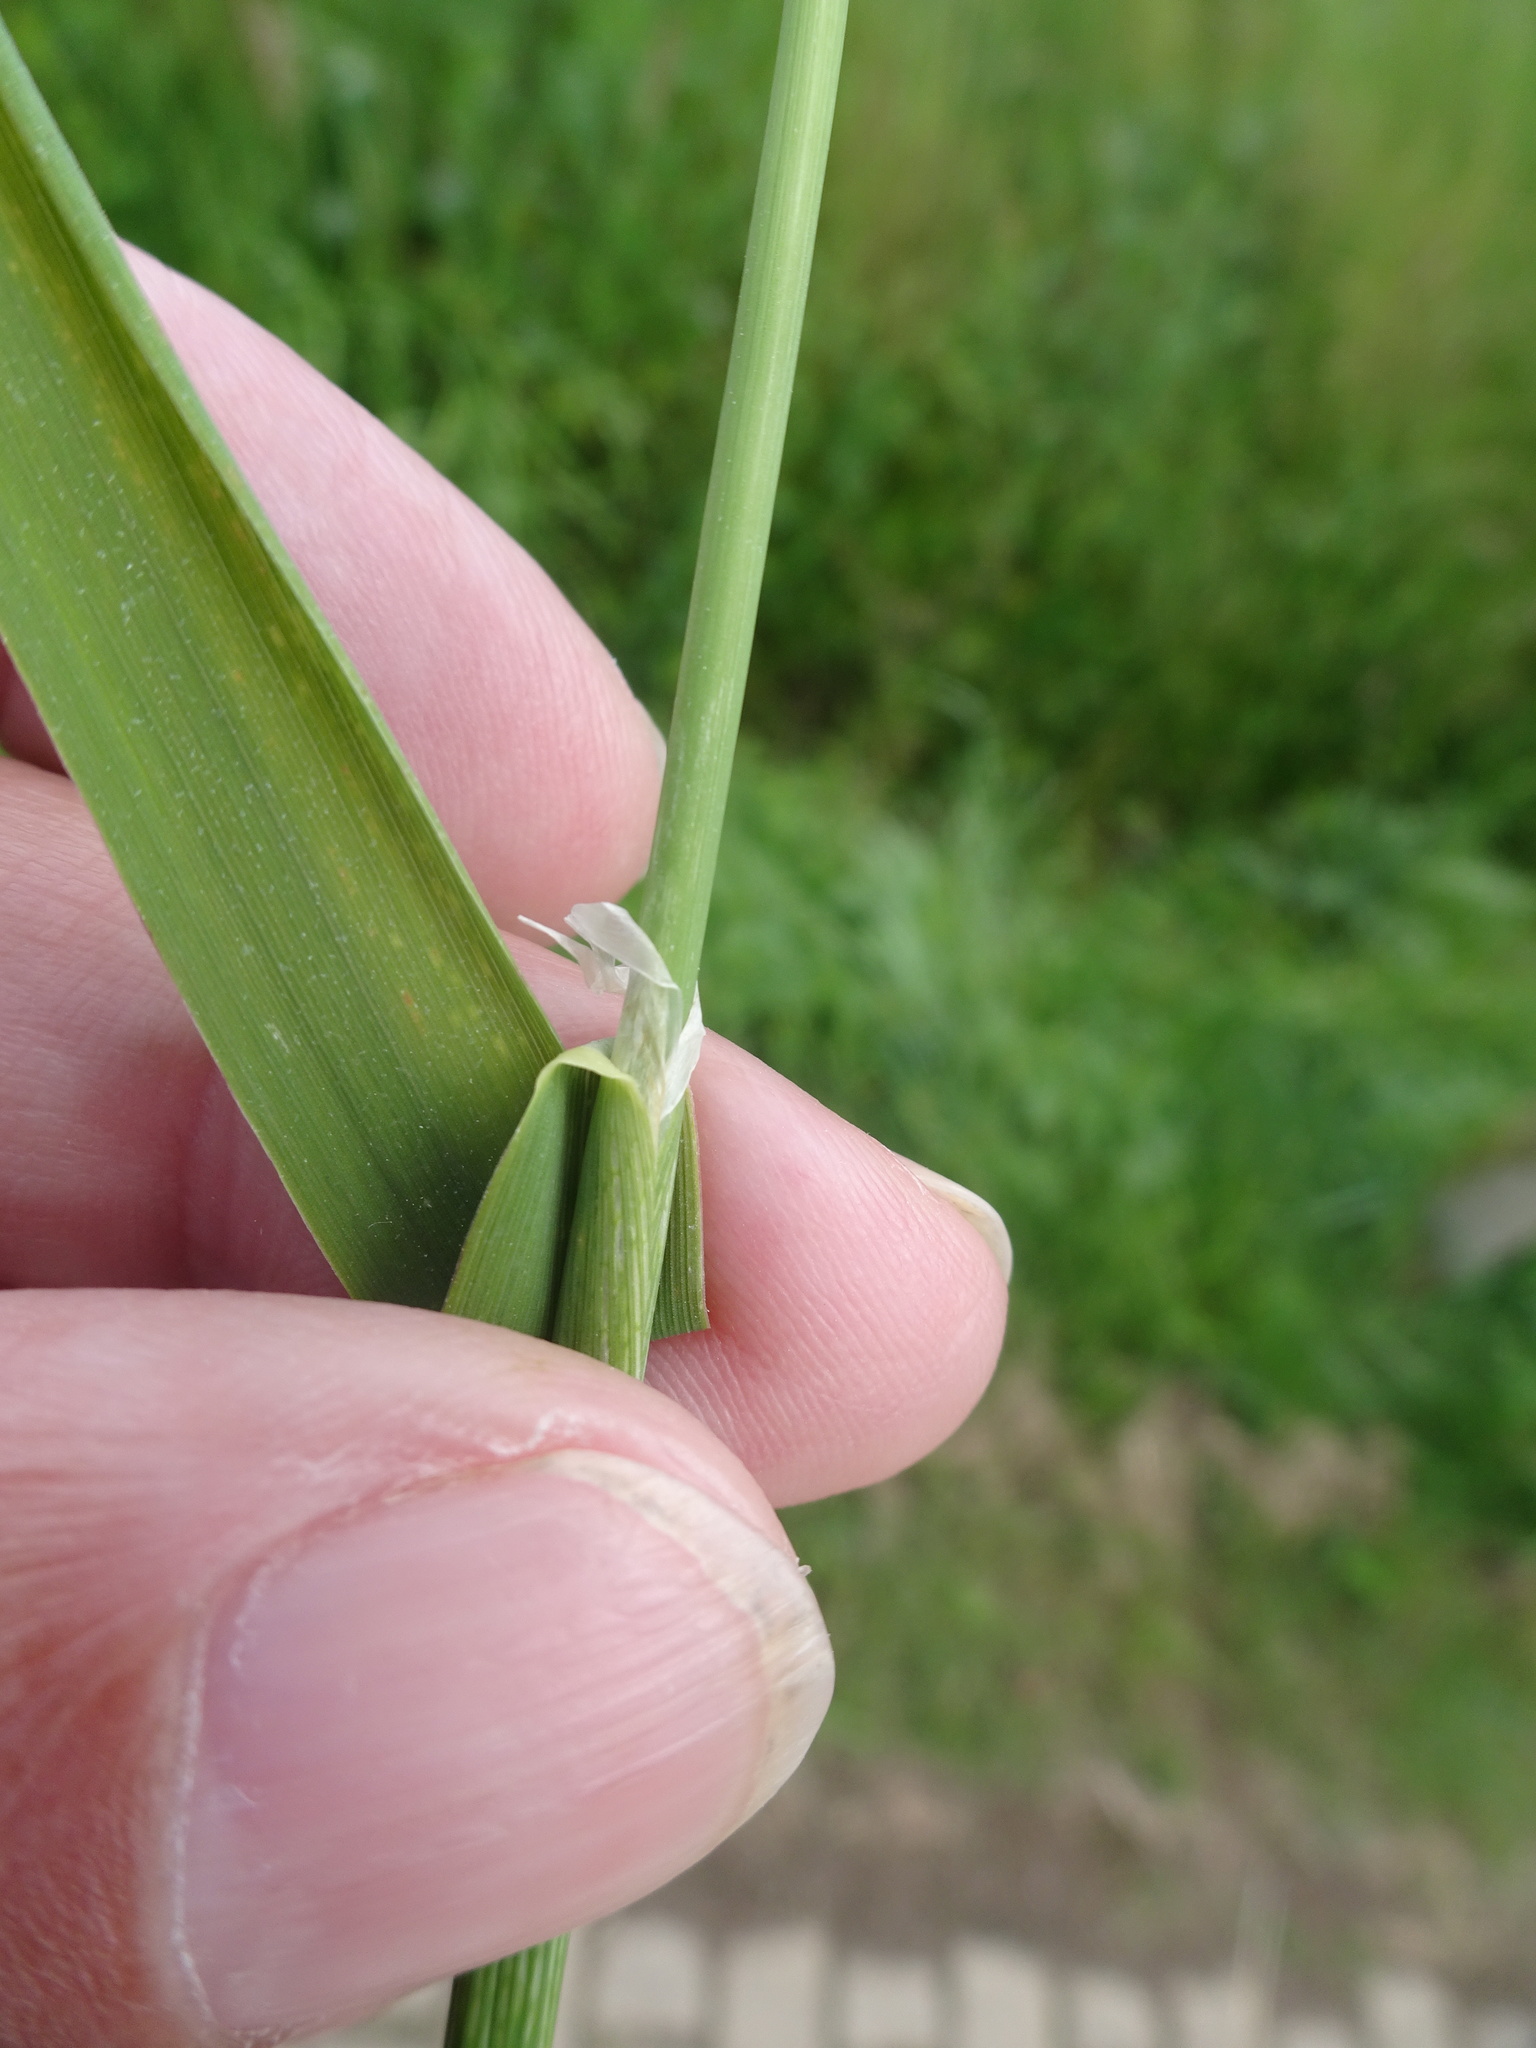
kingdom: Plantae
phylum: Tracheophyta
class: Liliopsida
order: Poales
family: Poaceae
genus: Phalaris
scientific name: Phalaris arundinacea
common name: Reed canary-grass
